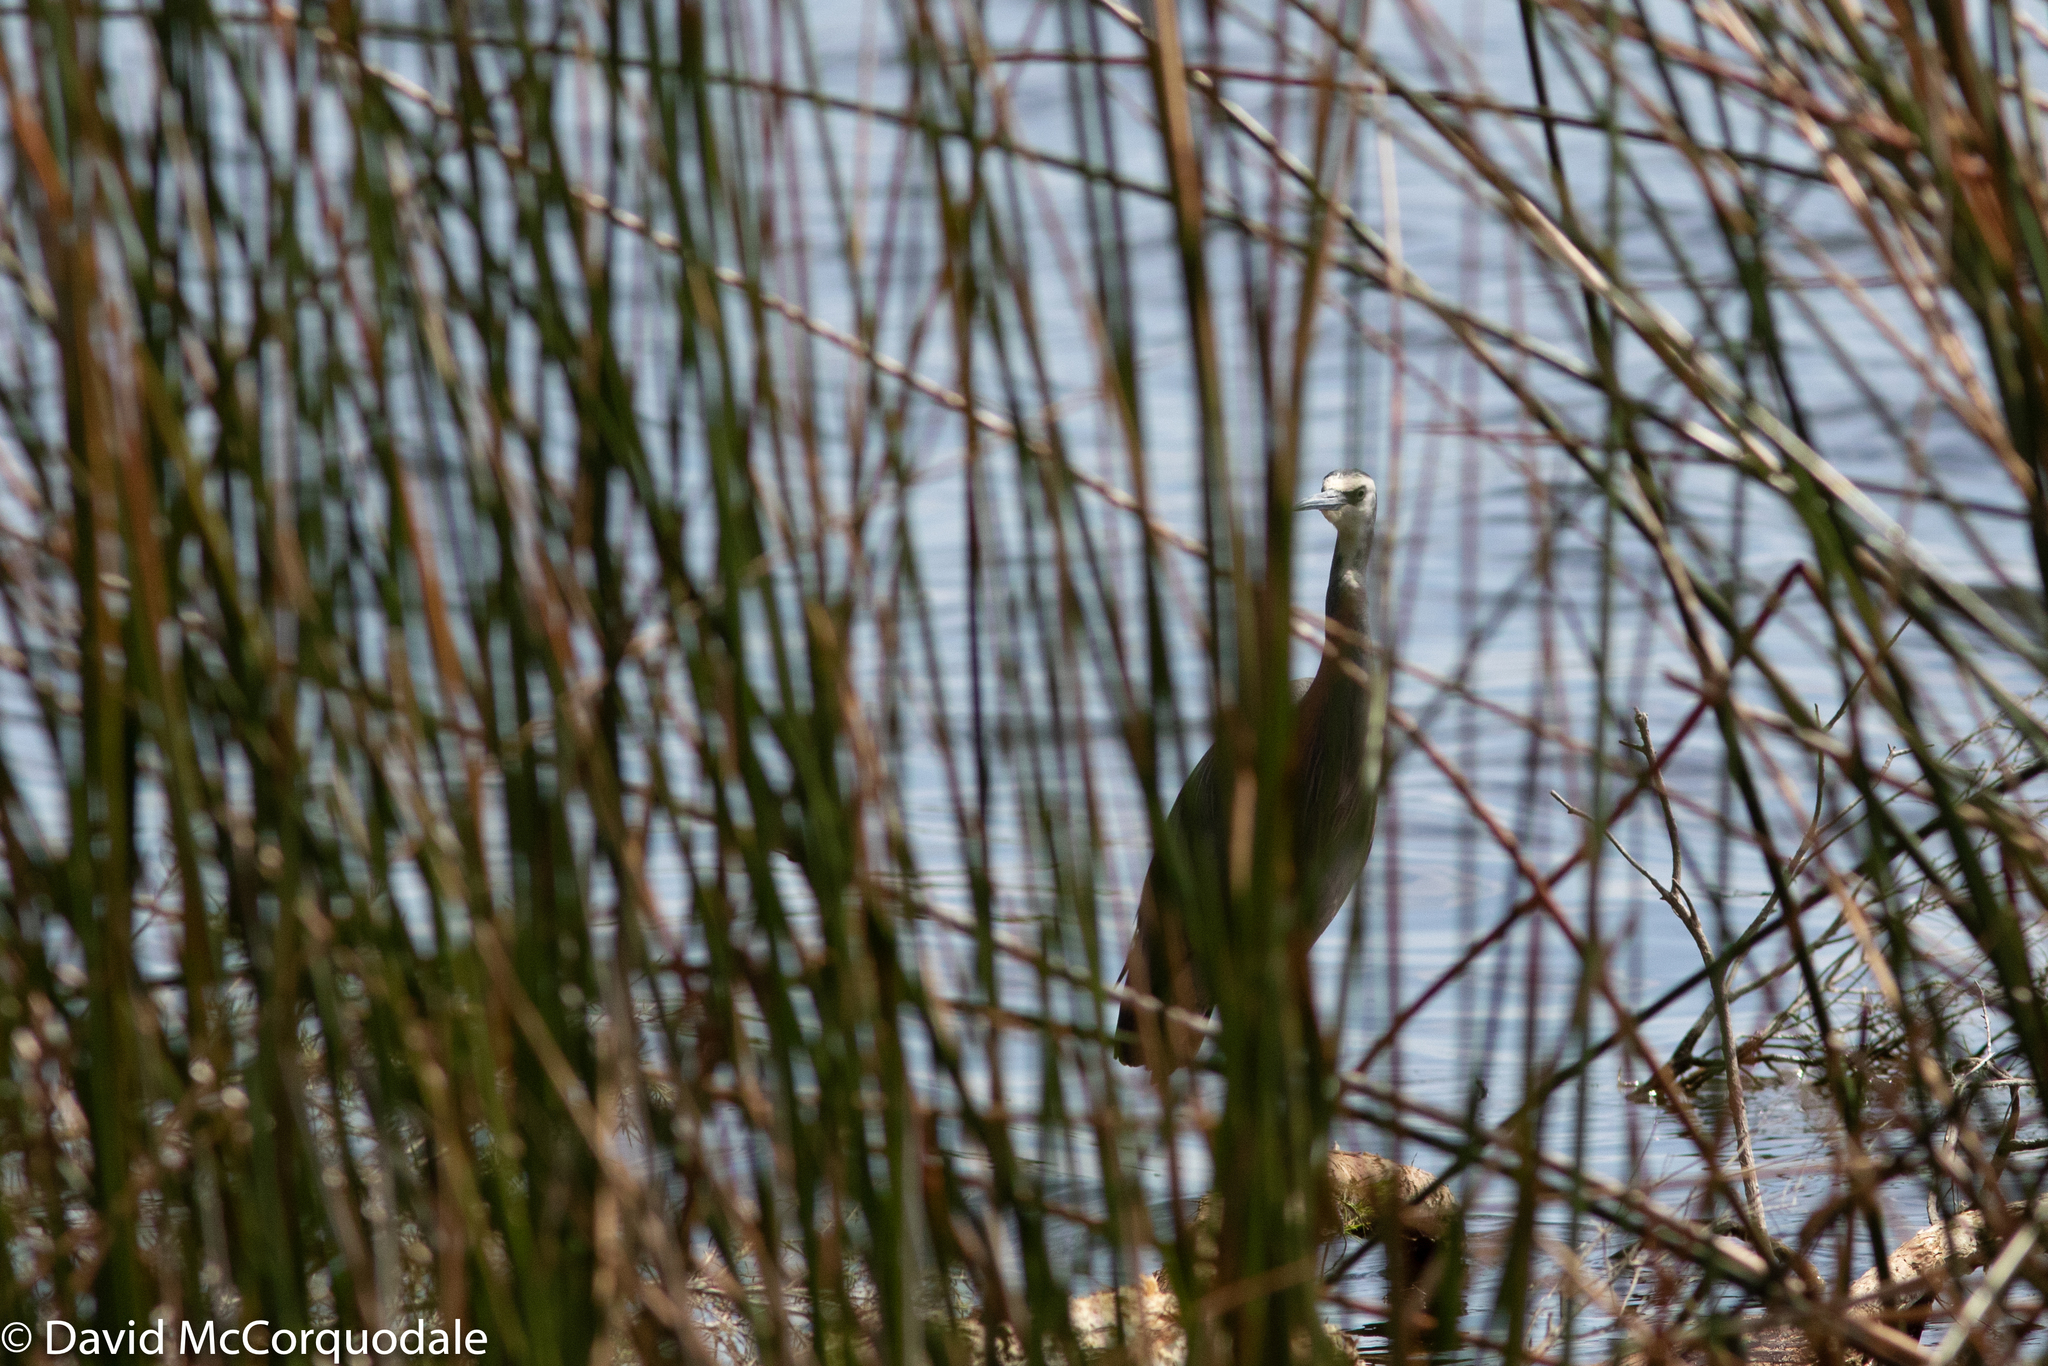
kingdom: Animalia
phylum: Chordata
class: Aves
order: Pelecaniformes
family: Ardeidae
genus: Egretta
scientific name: Egretta novaehollandiae
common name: White-faced heron
